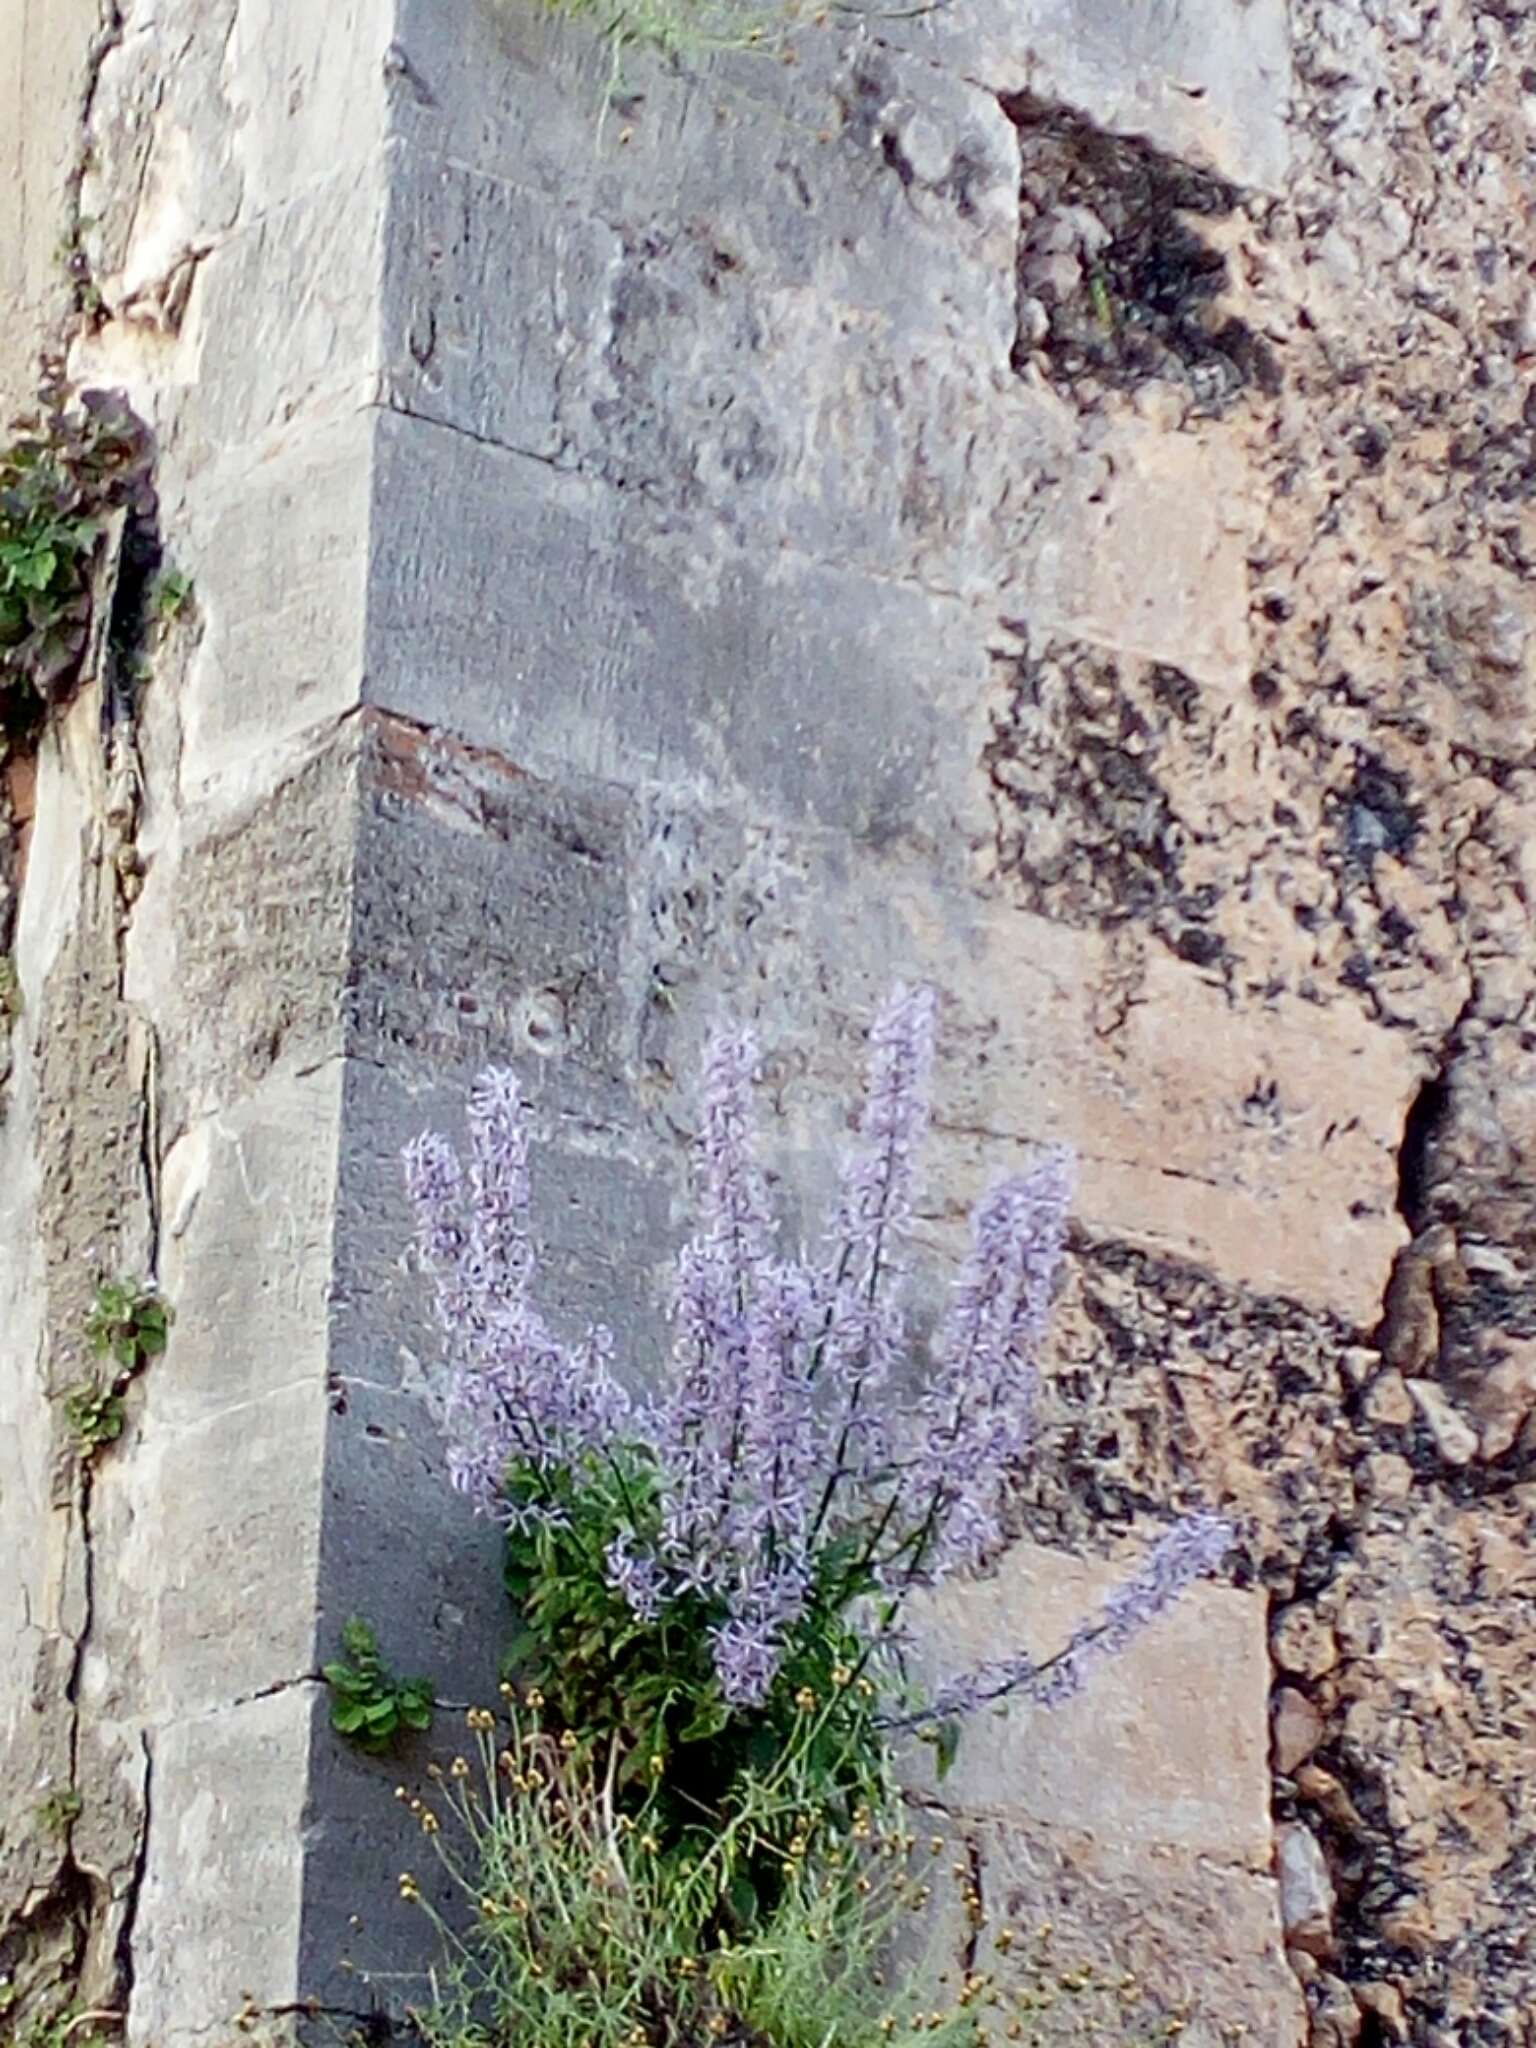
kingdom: Plantae
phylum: Tracheophyta
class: Magnoliopsida
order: Asterales
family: Campanulaceae
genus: Petromarula
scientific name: Petromarula pinnata
